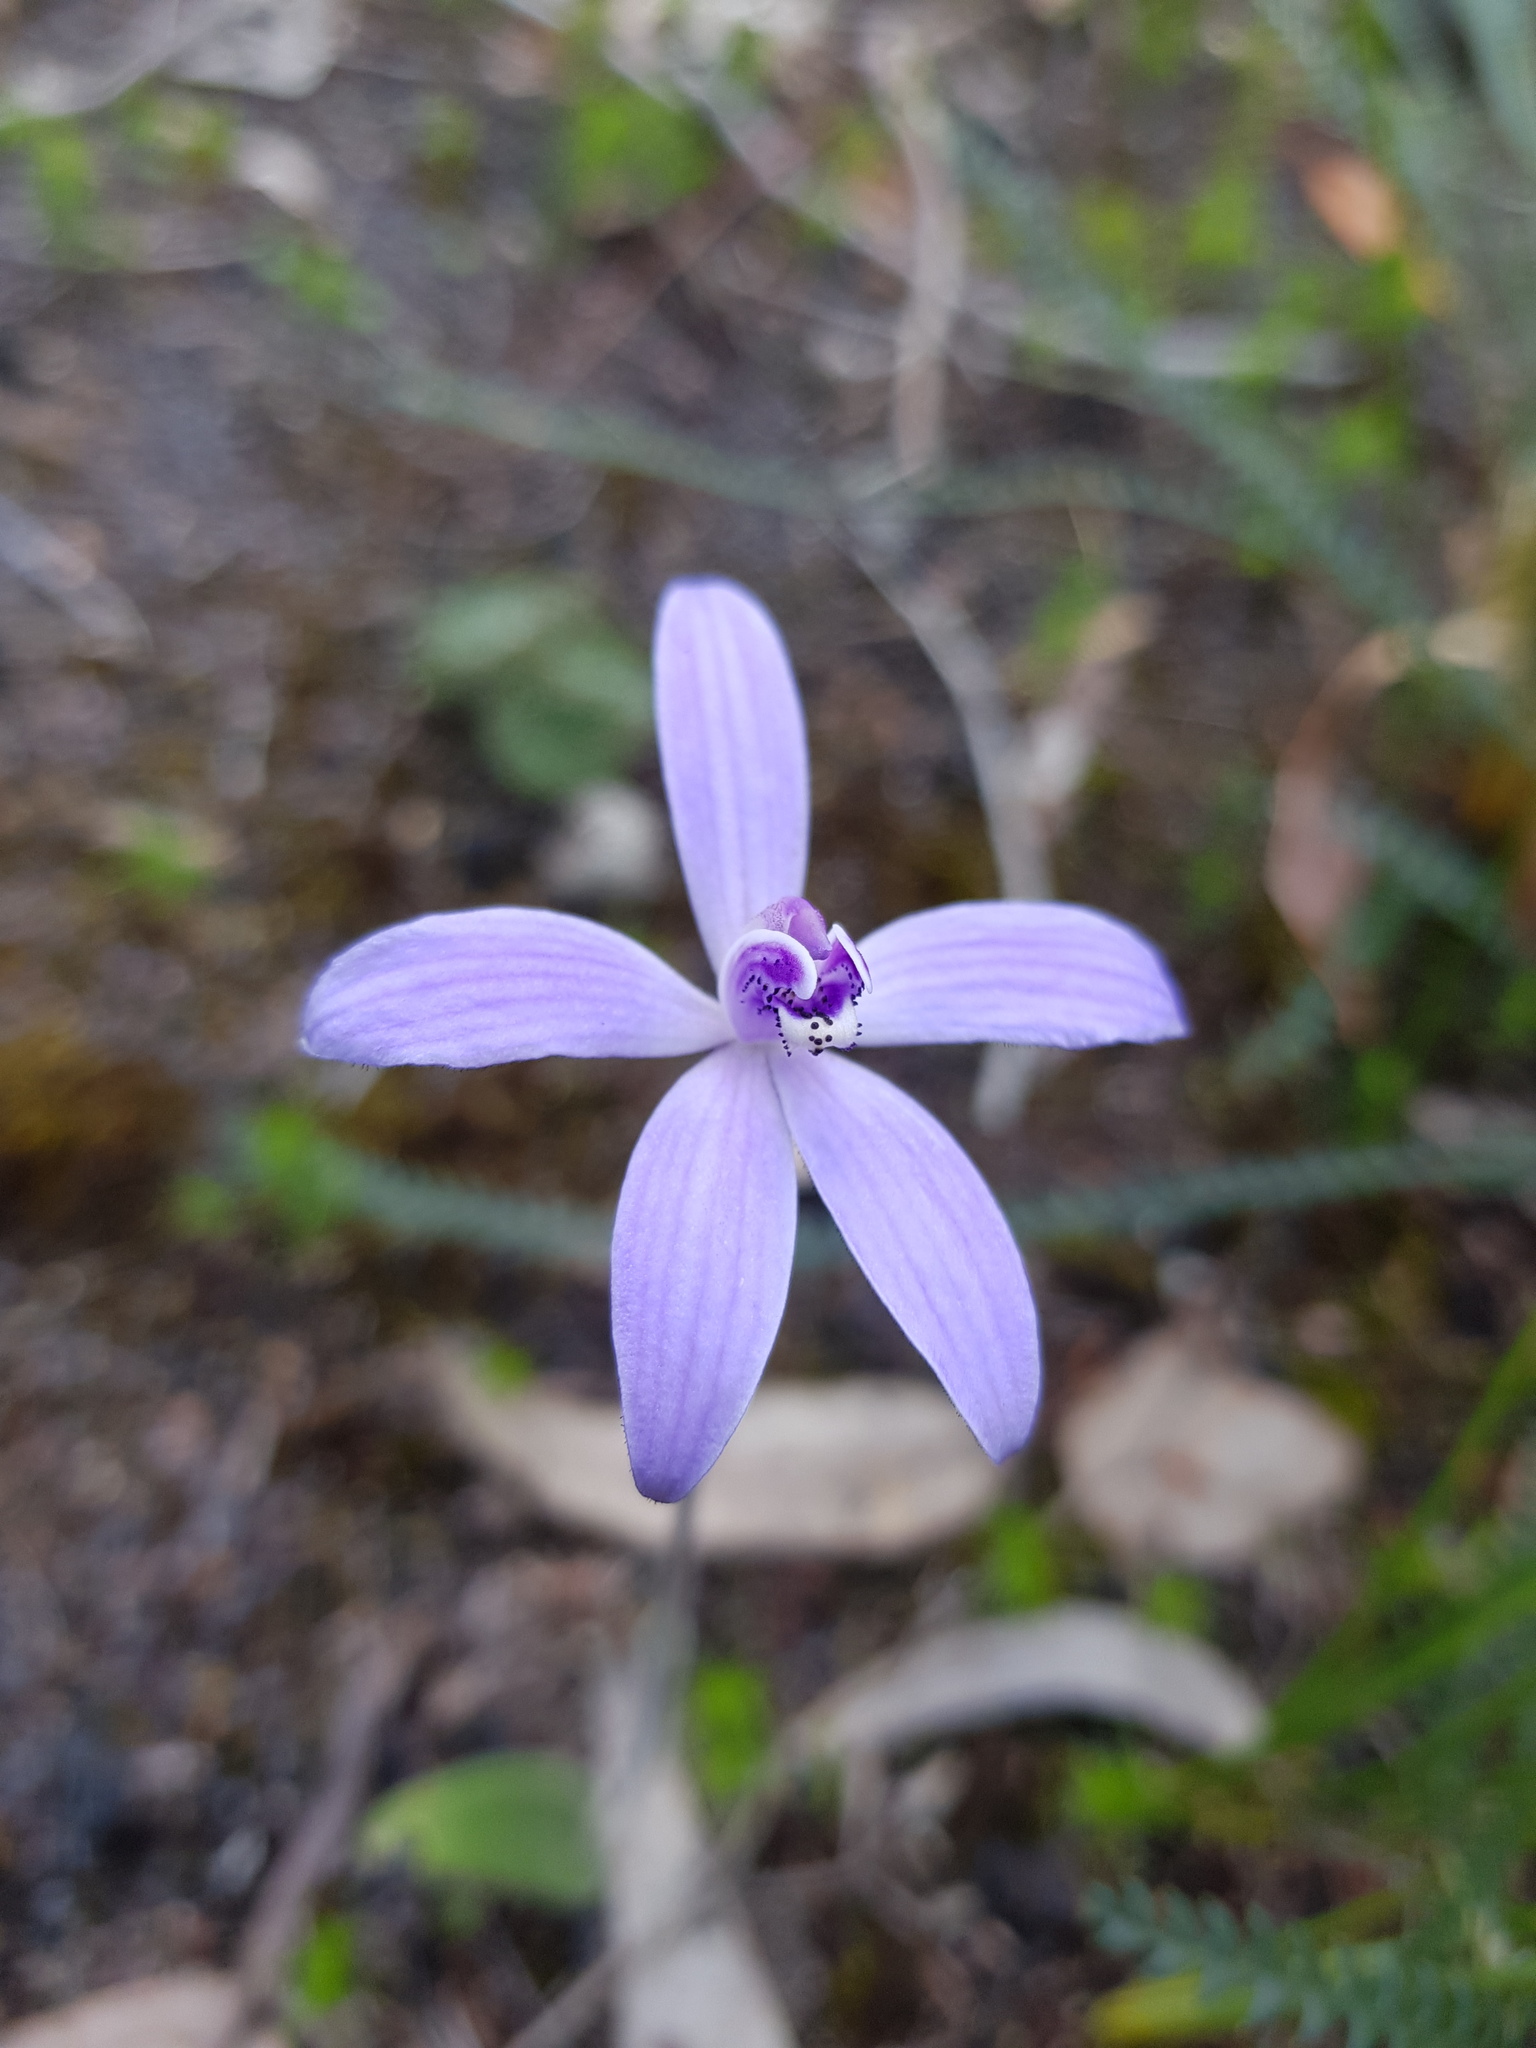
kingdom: Plantae
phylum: Tracheophyta
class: Liliopsida
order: Asparagales
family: Orchidaceae
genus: Caladenia
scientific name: Caladenia sericea
